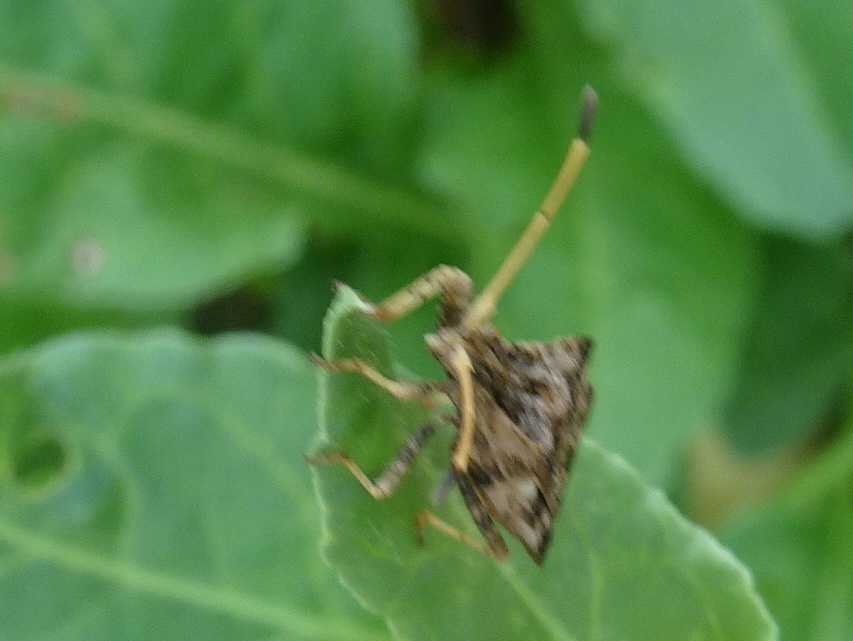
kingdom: Animalia
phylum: Arthropoda
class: Insecta
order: Hemiptera
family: Coreidae
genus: Centrocoris
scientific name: Centrocoris variegatus
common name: Leaf-footed bug
